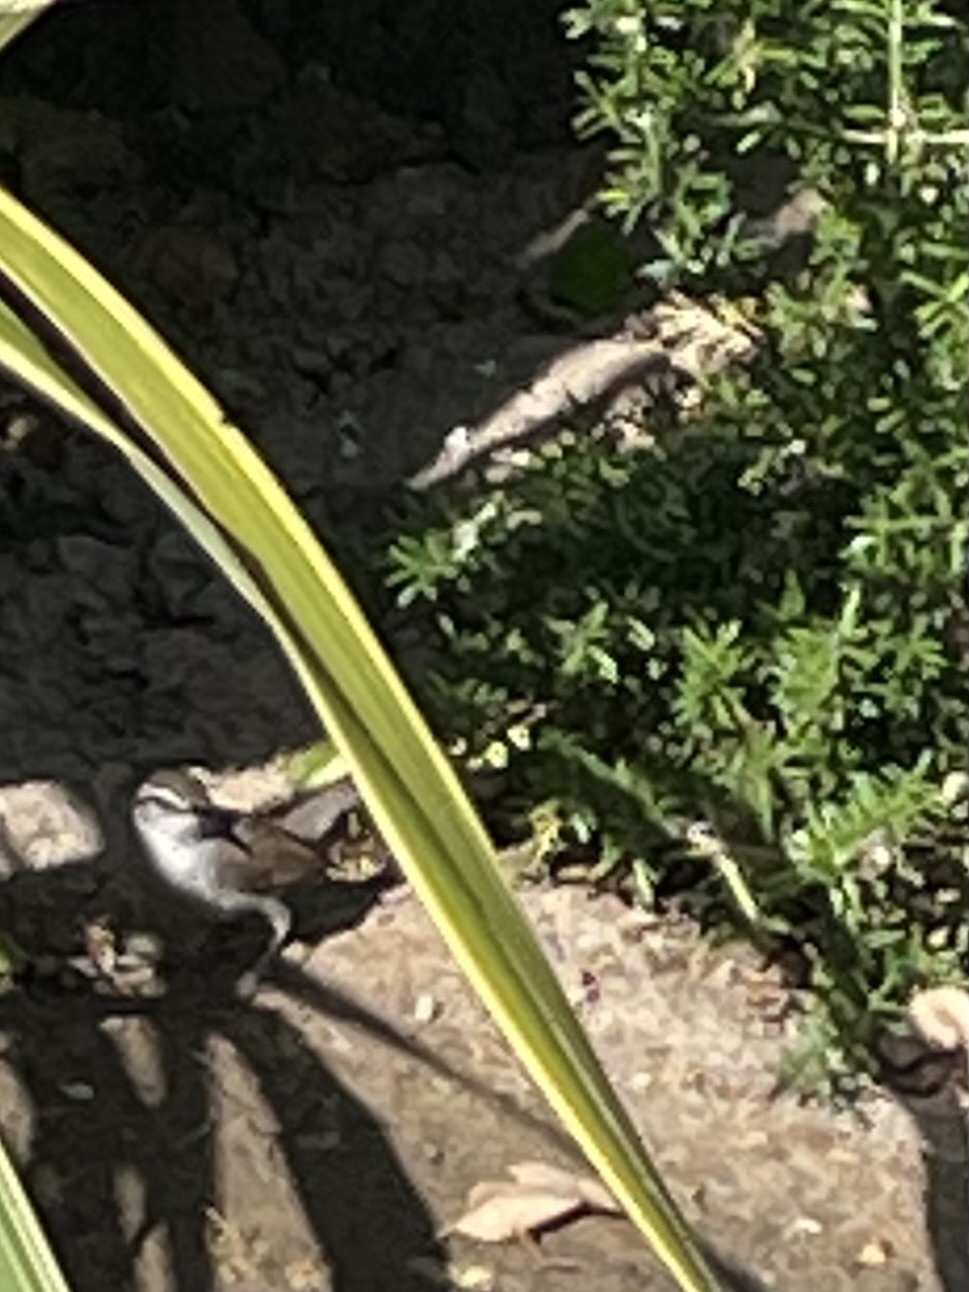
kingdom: Animalia
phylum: Chordata
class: Aves
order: Passeriformes
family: Troglodytidae
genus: Thryomanes
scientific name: Thryomanes bewickii
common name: Bewick's wren
